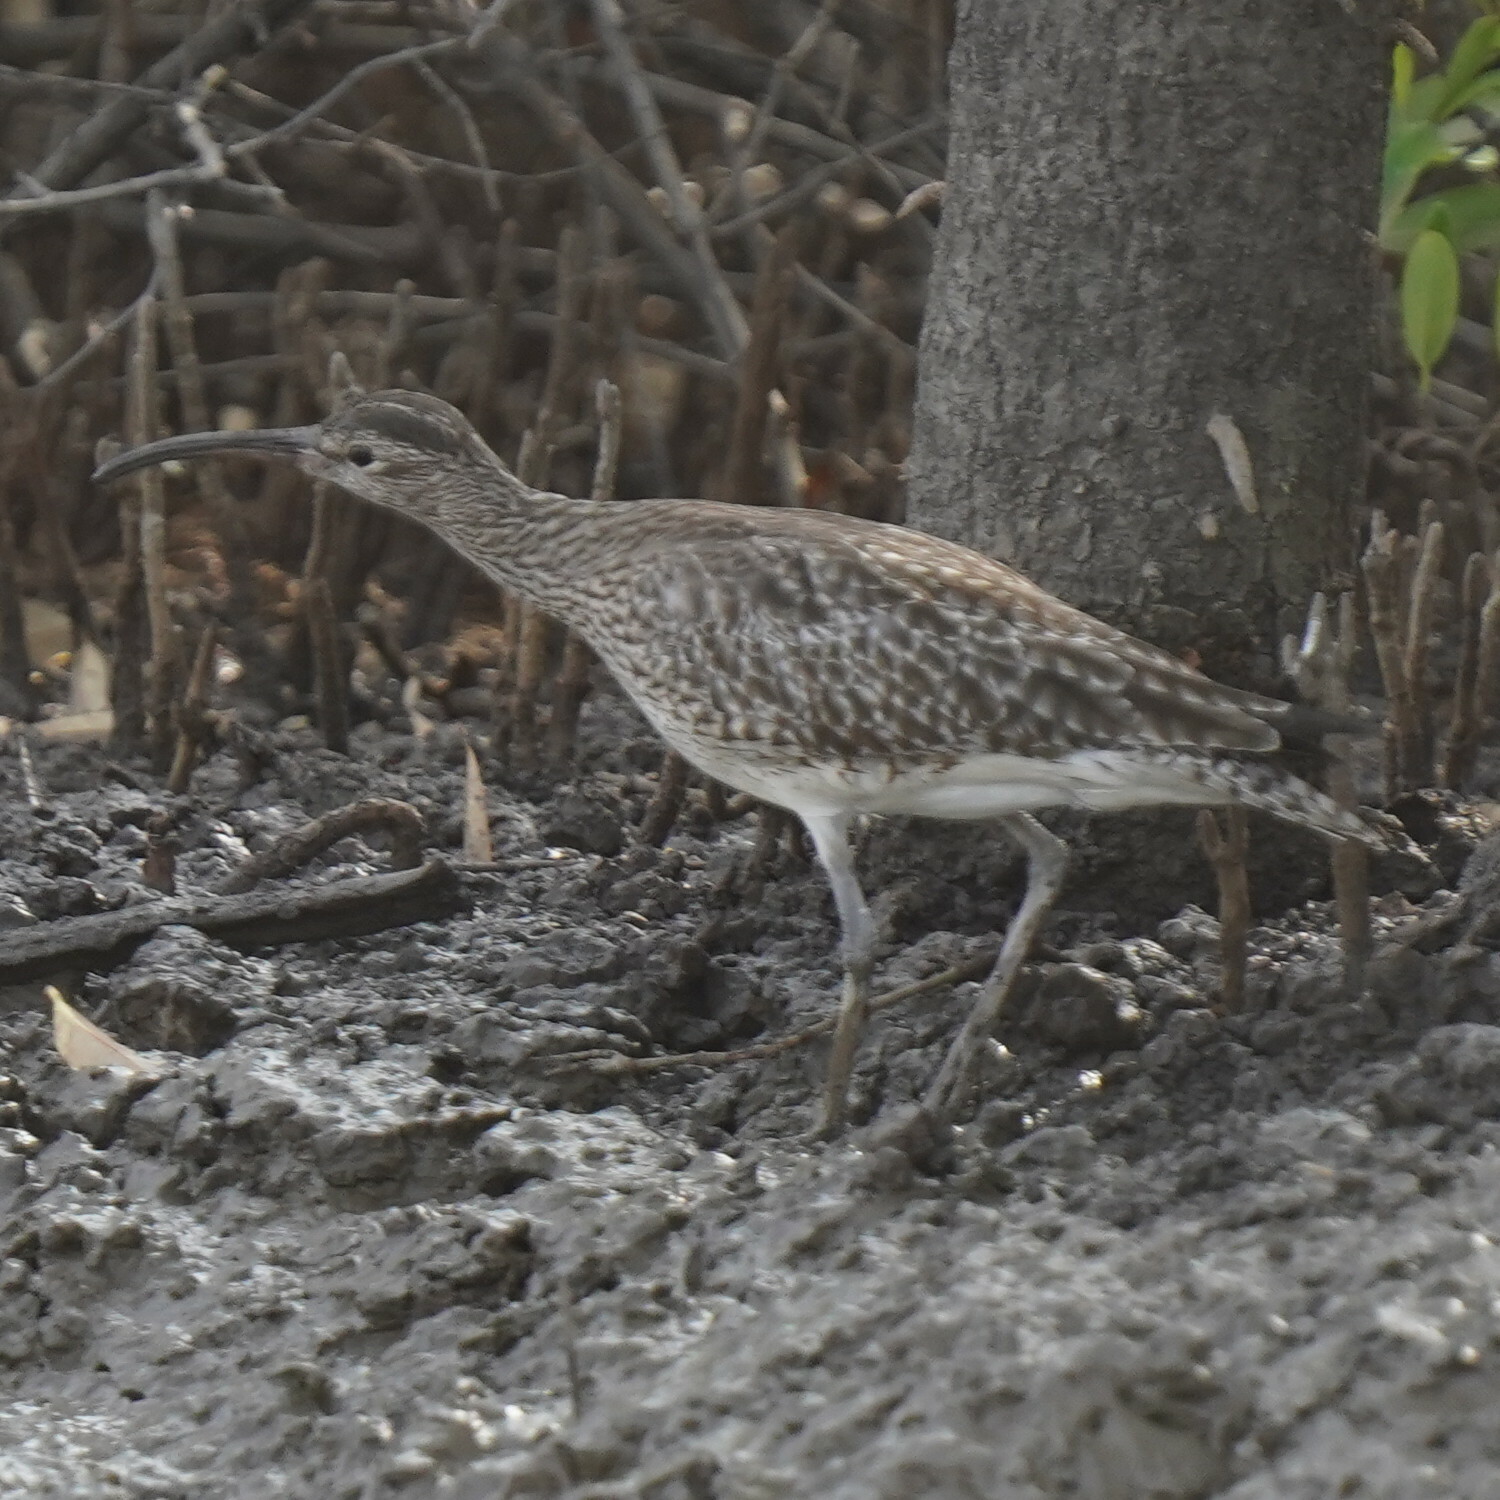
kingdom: Animalia
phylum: Chordata
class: Aves
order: Charadriiformes
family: Scolopacidae
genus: Numenius
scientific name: Numenius phaeopus
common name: Whimbrel
